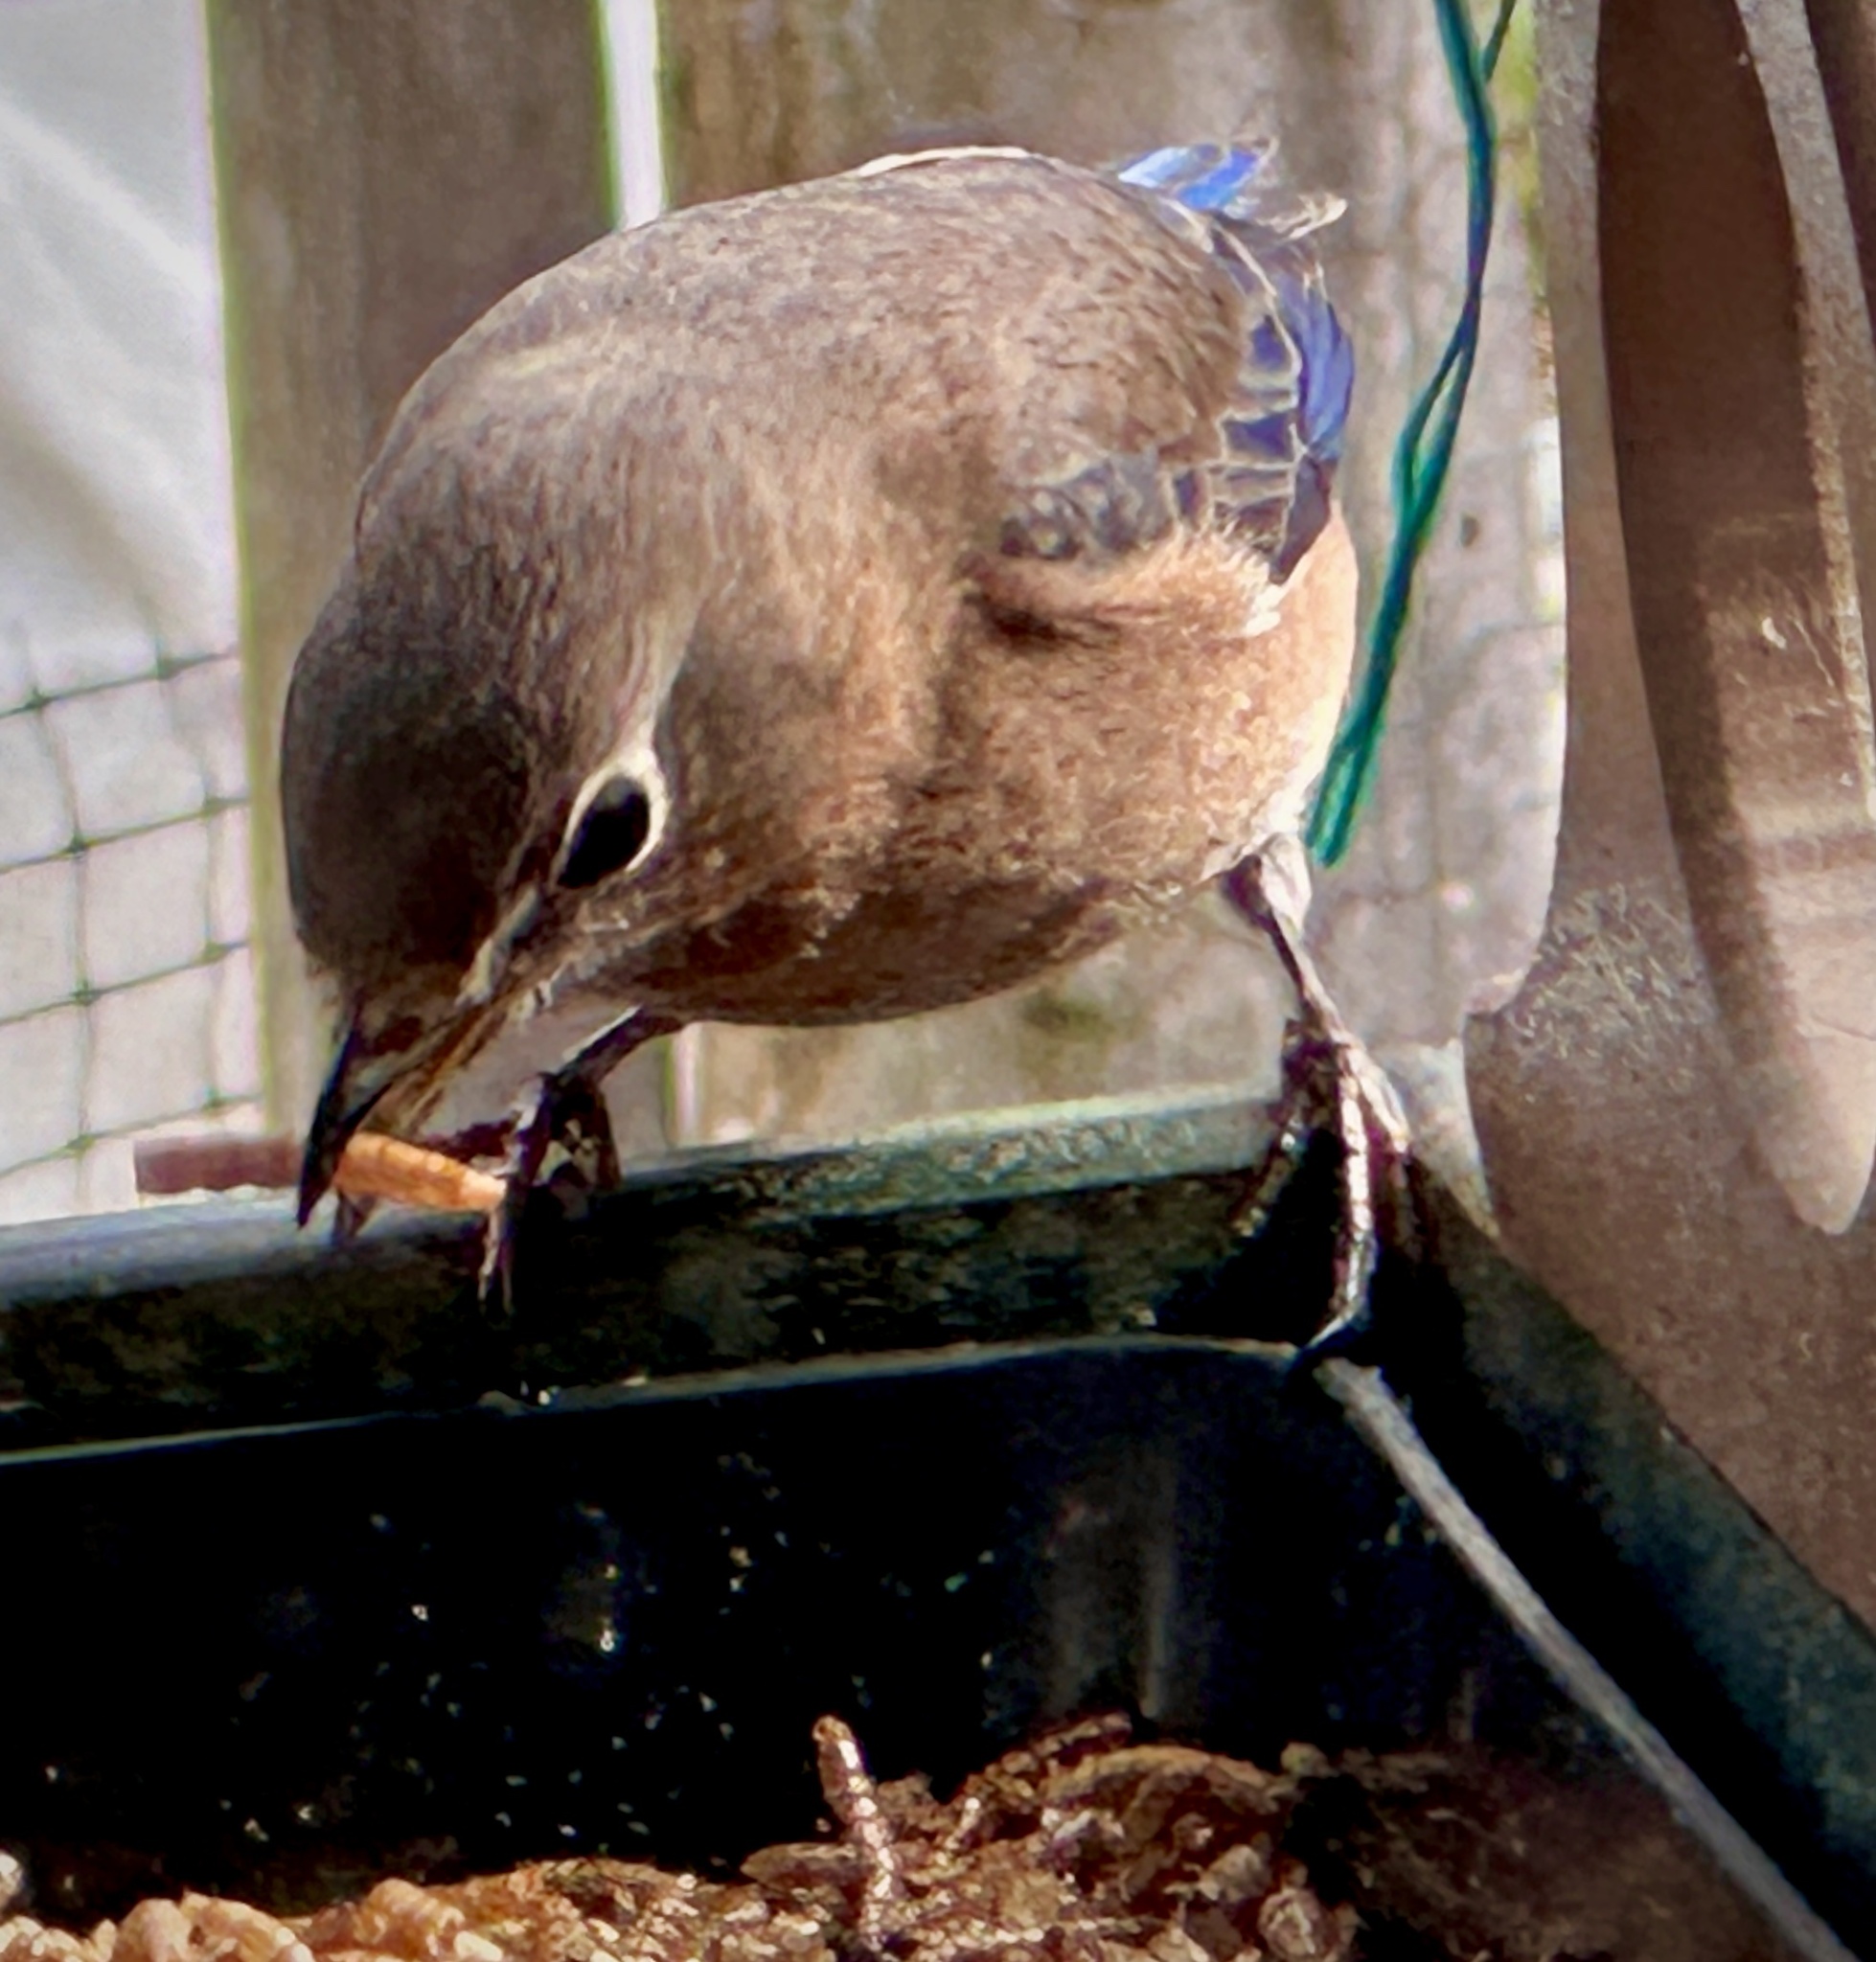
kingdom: Animalia
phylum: Chordata
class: Aves
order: Passeriformes
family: Turdidae
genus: Sialia
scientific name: Sialia sialis
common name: Eastern bluebird
